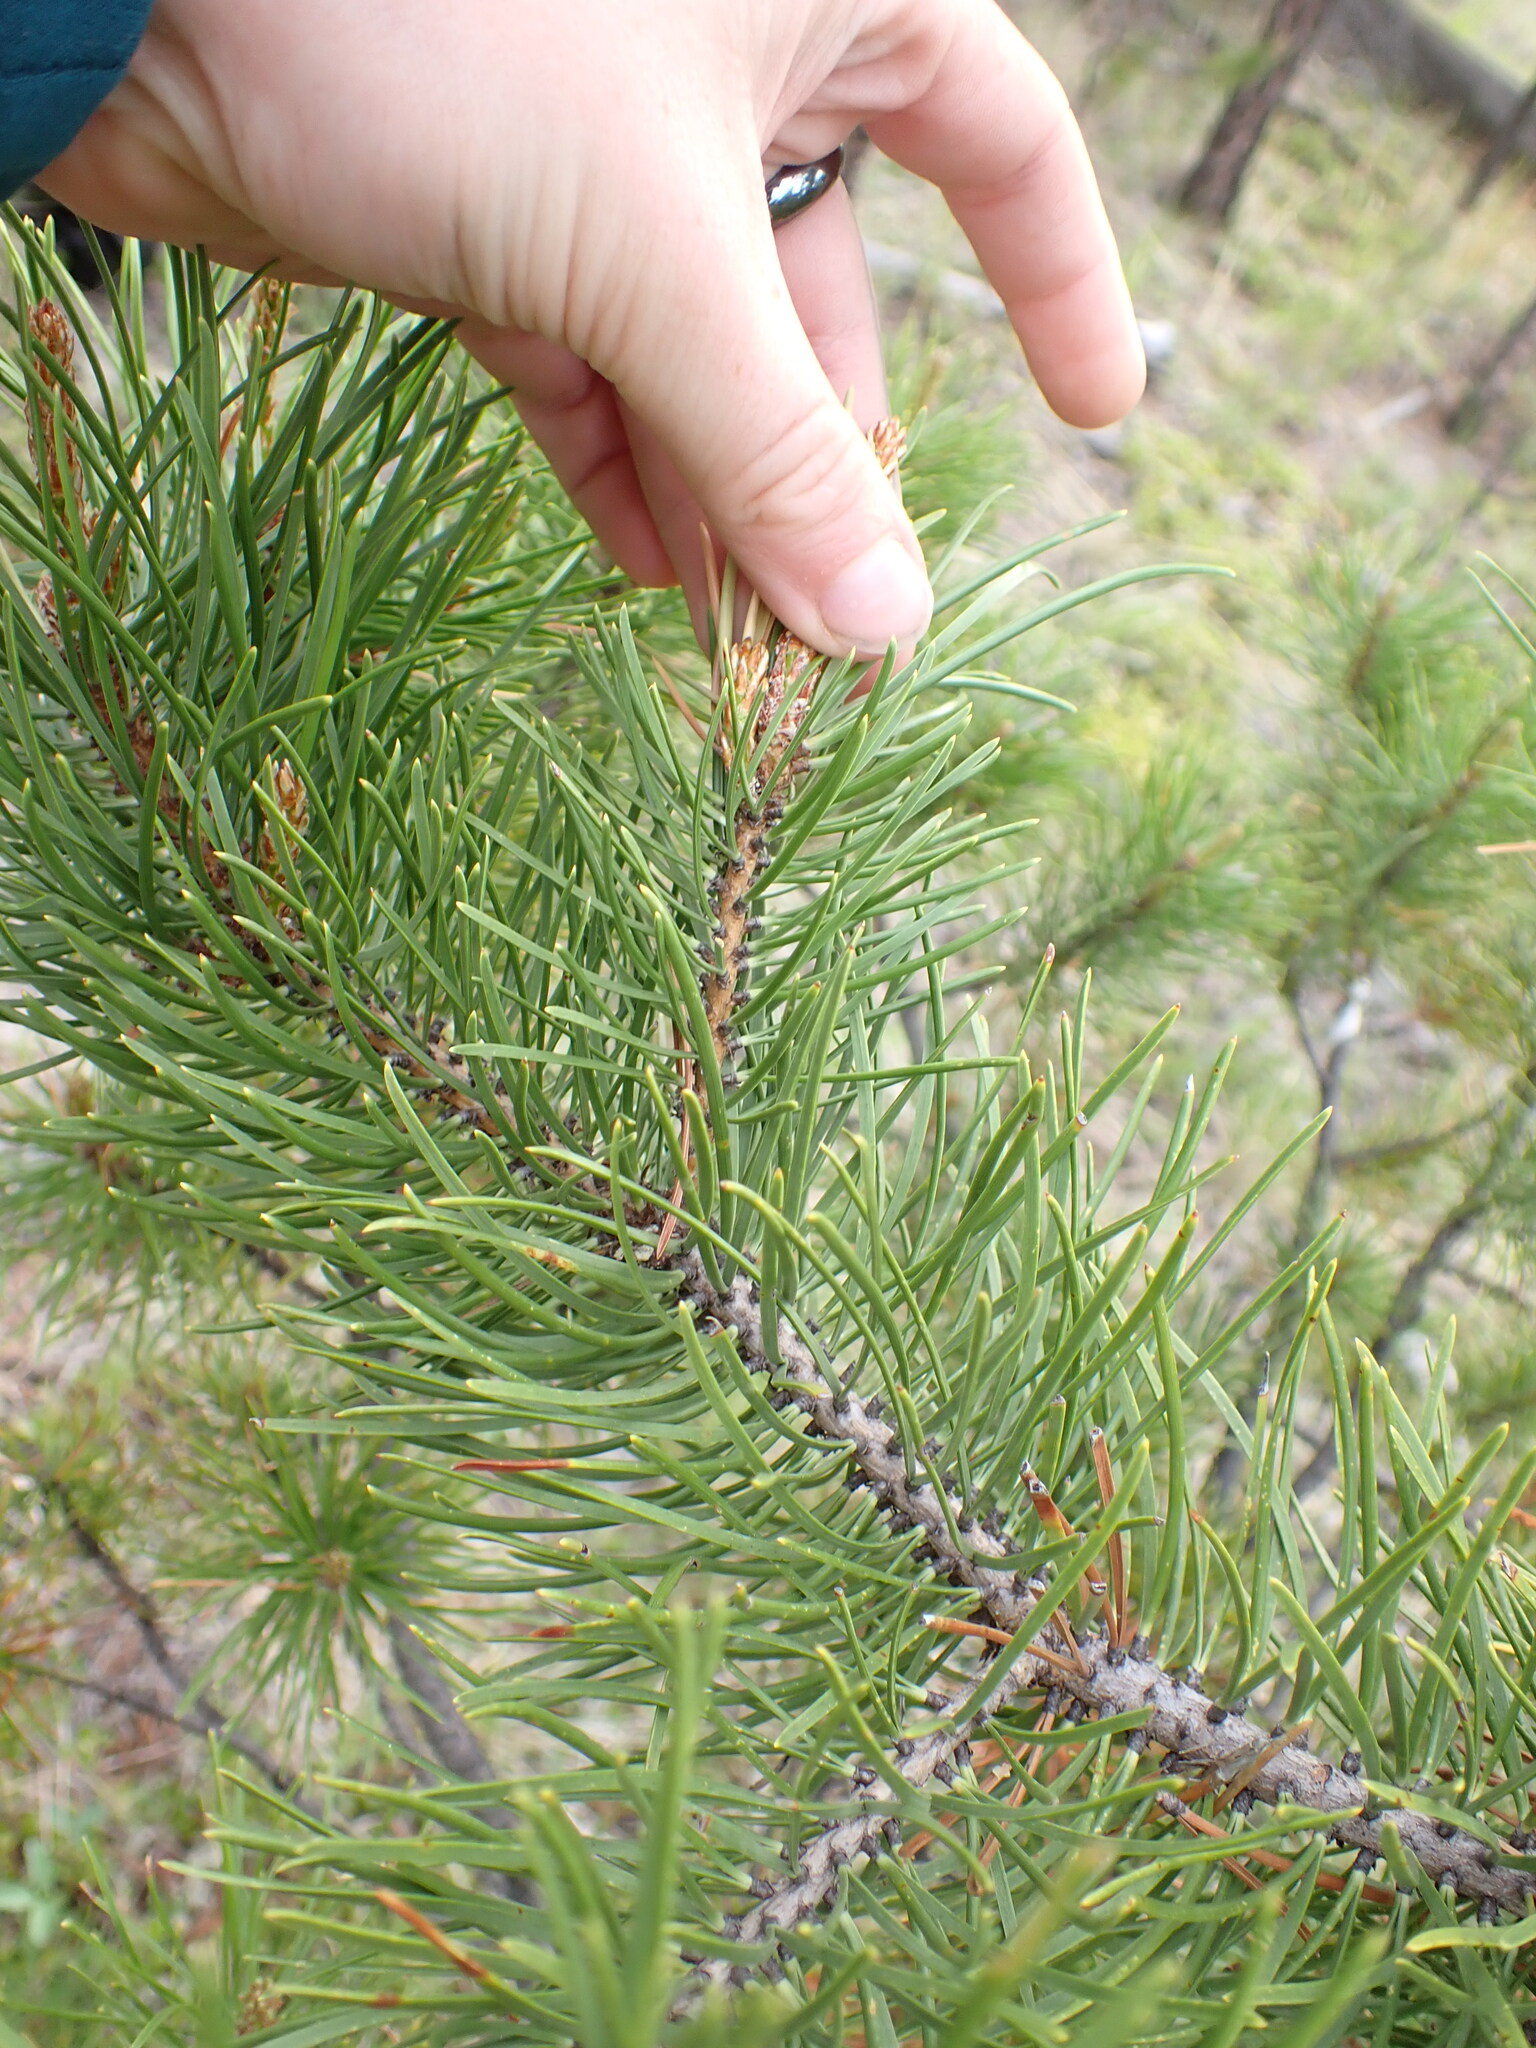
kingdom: Plantae
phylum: Tracheophyta
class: Pinopsida
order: Pinales
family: Pinaceae
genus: Pinus
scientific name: Pinus contorta
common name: Lodgepole pine
